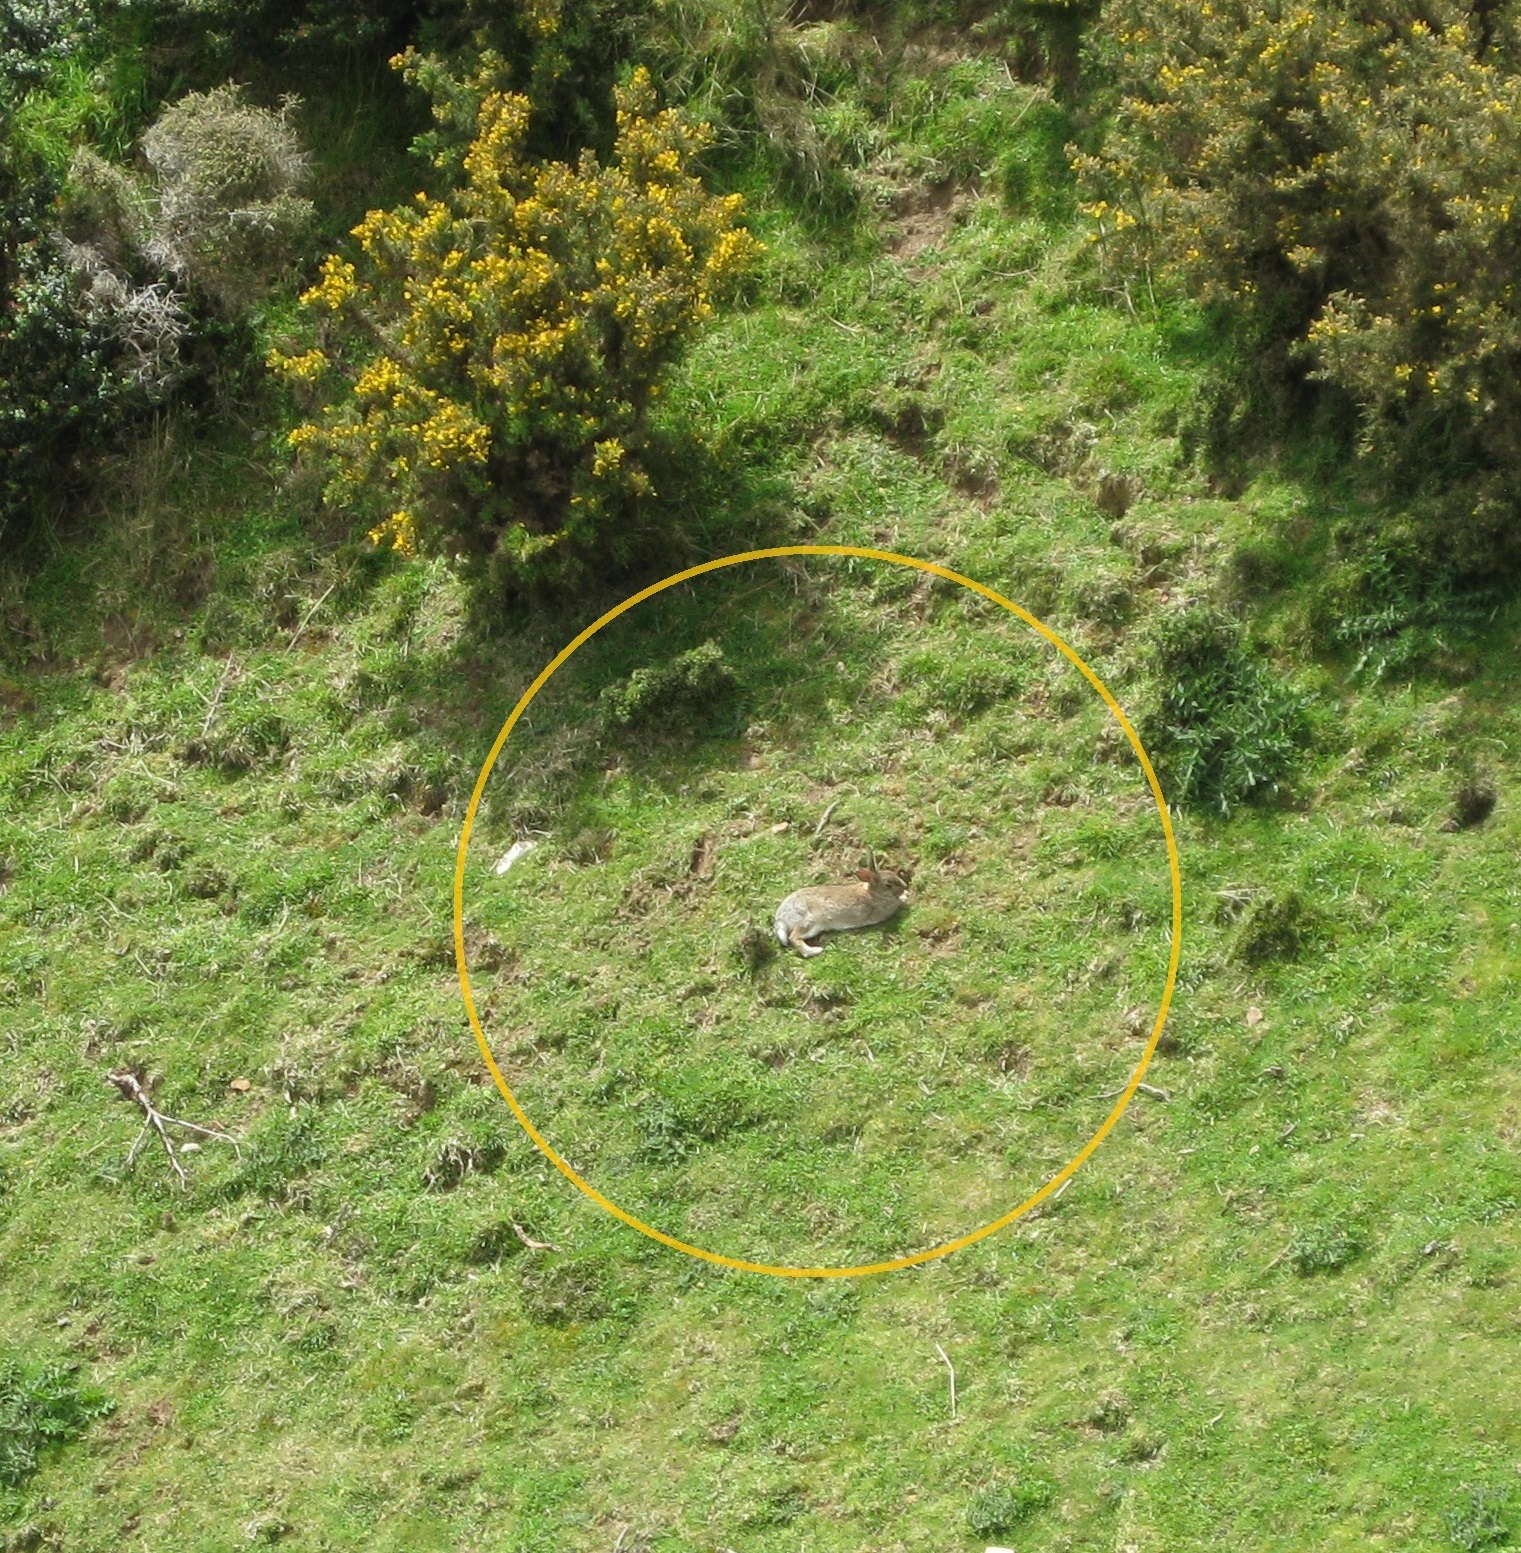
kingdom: Animalia
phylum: Chordata
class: Mammalia
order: Lagomorpha
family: Leporidae
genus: Oryctolagus
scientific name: Oryctolagus cuniculus
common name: European rabbit
